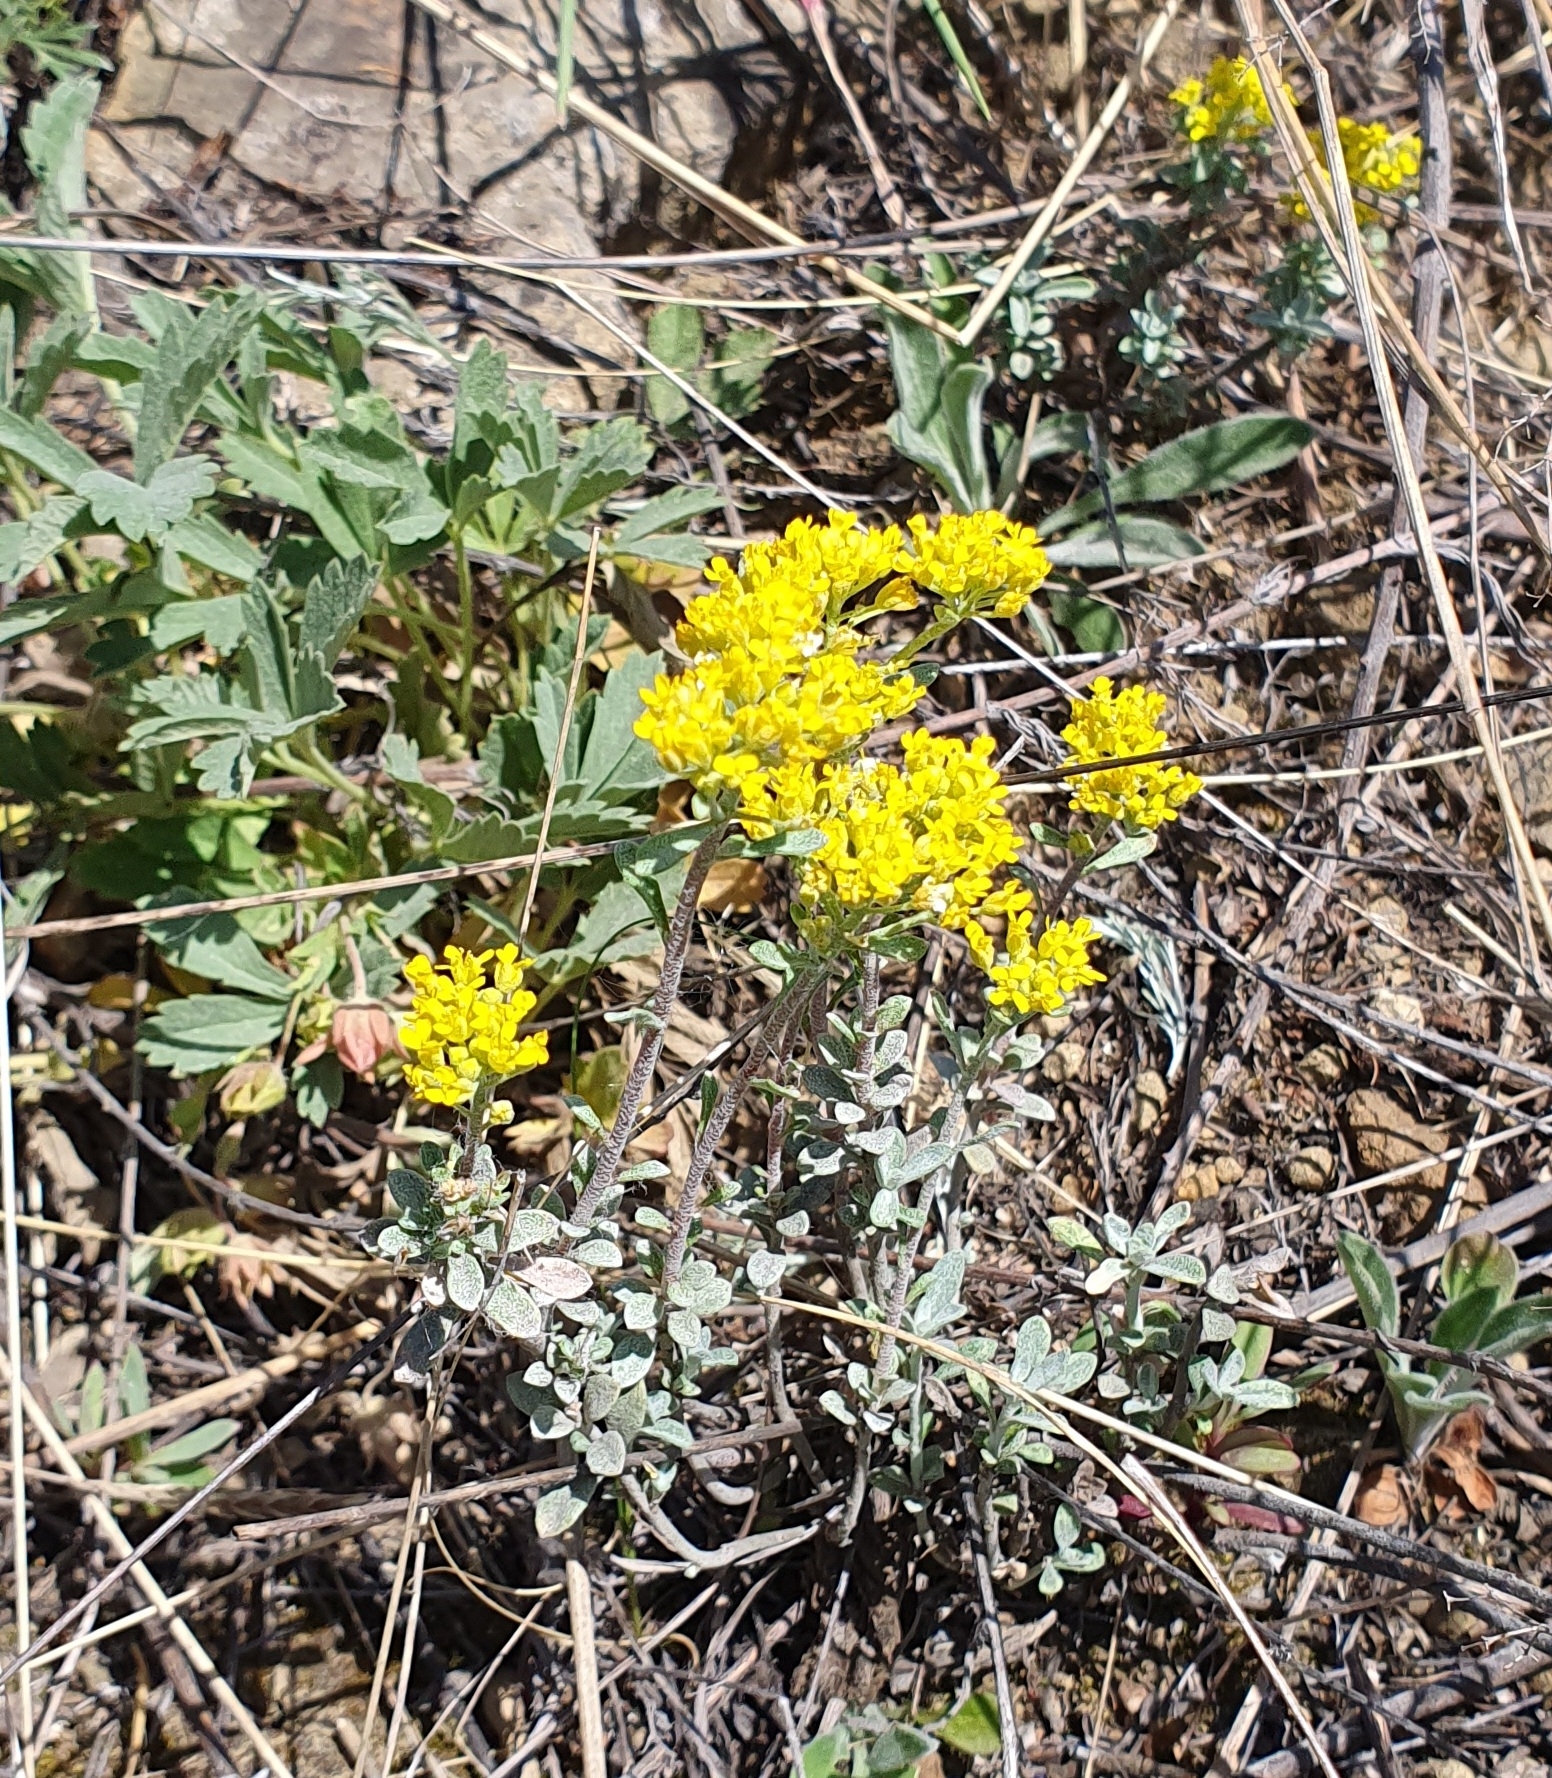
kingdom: Plantae
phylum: Tracheophyta
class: Magnoliopsida
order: Brassicales
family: Brassicaceae
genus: Odontarrhena
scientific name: Odontarrhena tortuosa
